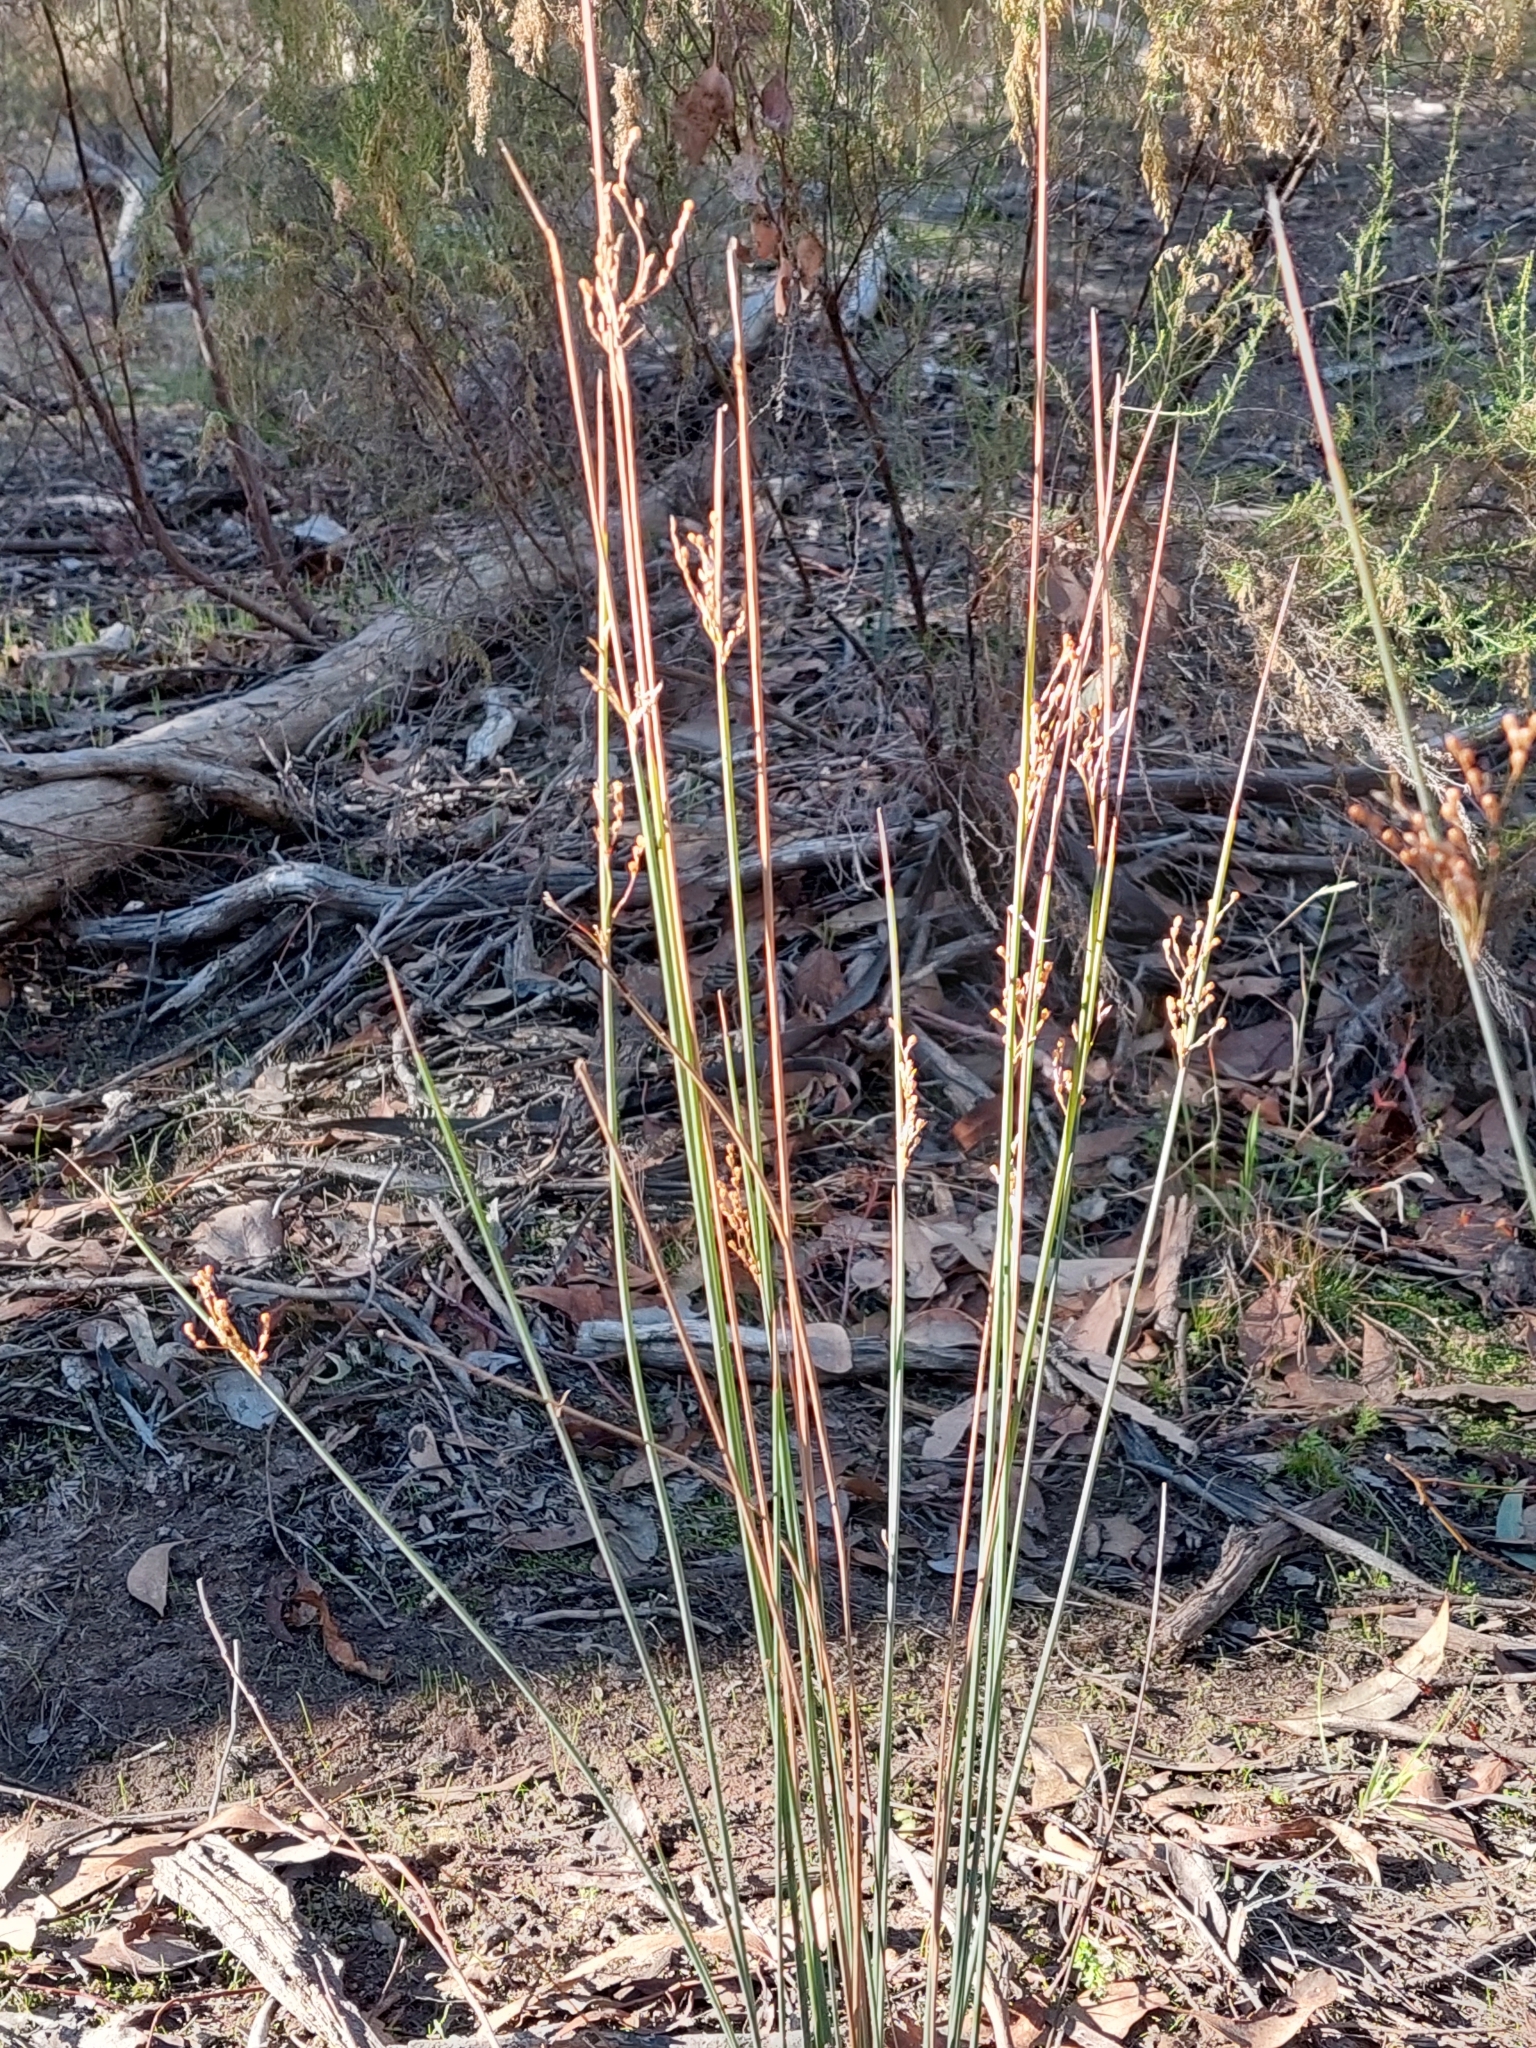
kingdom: Plantae
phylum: Tracheophyta
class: Liliopsida
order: Poales
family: Juncaceae
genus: Juncus
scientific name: Juncus remotiflorus
